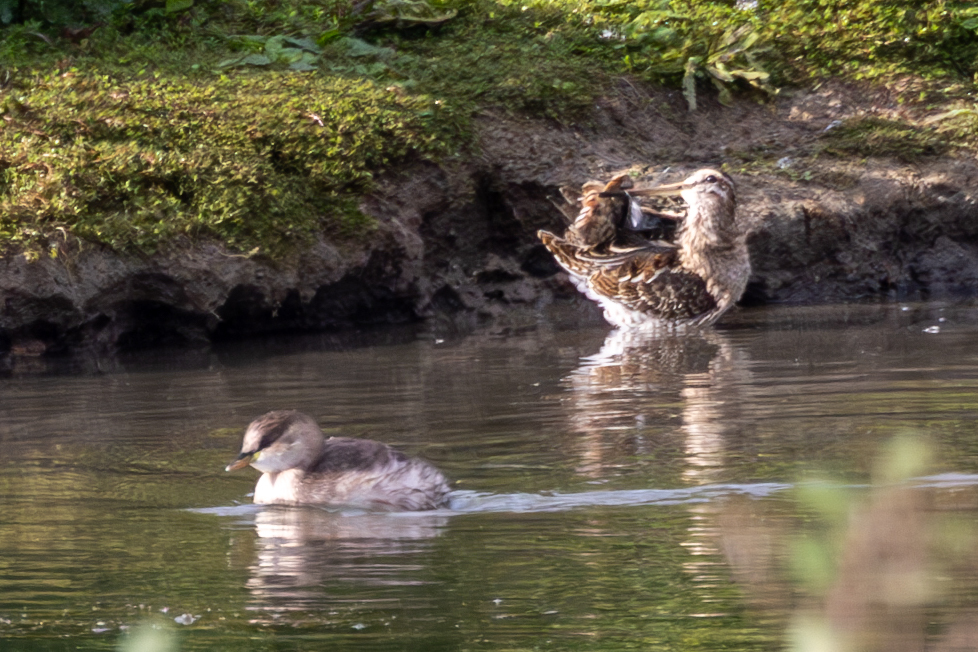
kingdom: Animalia
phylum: Chordata
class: Aves
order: Podicipediformes
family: Podicipedidae
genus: Tachybaptus
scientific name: Tachybaptus ruficollis
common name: Little grebe
